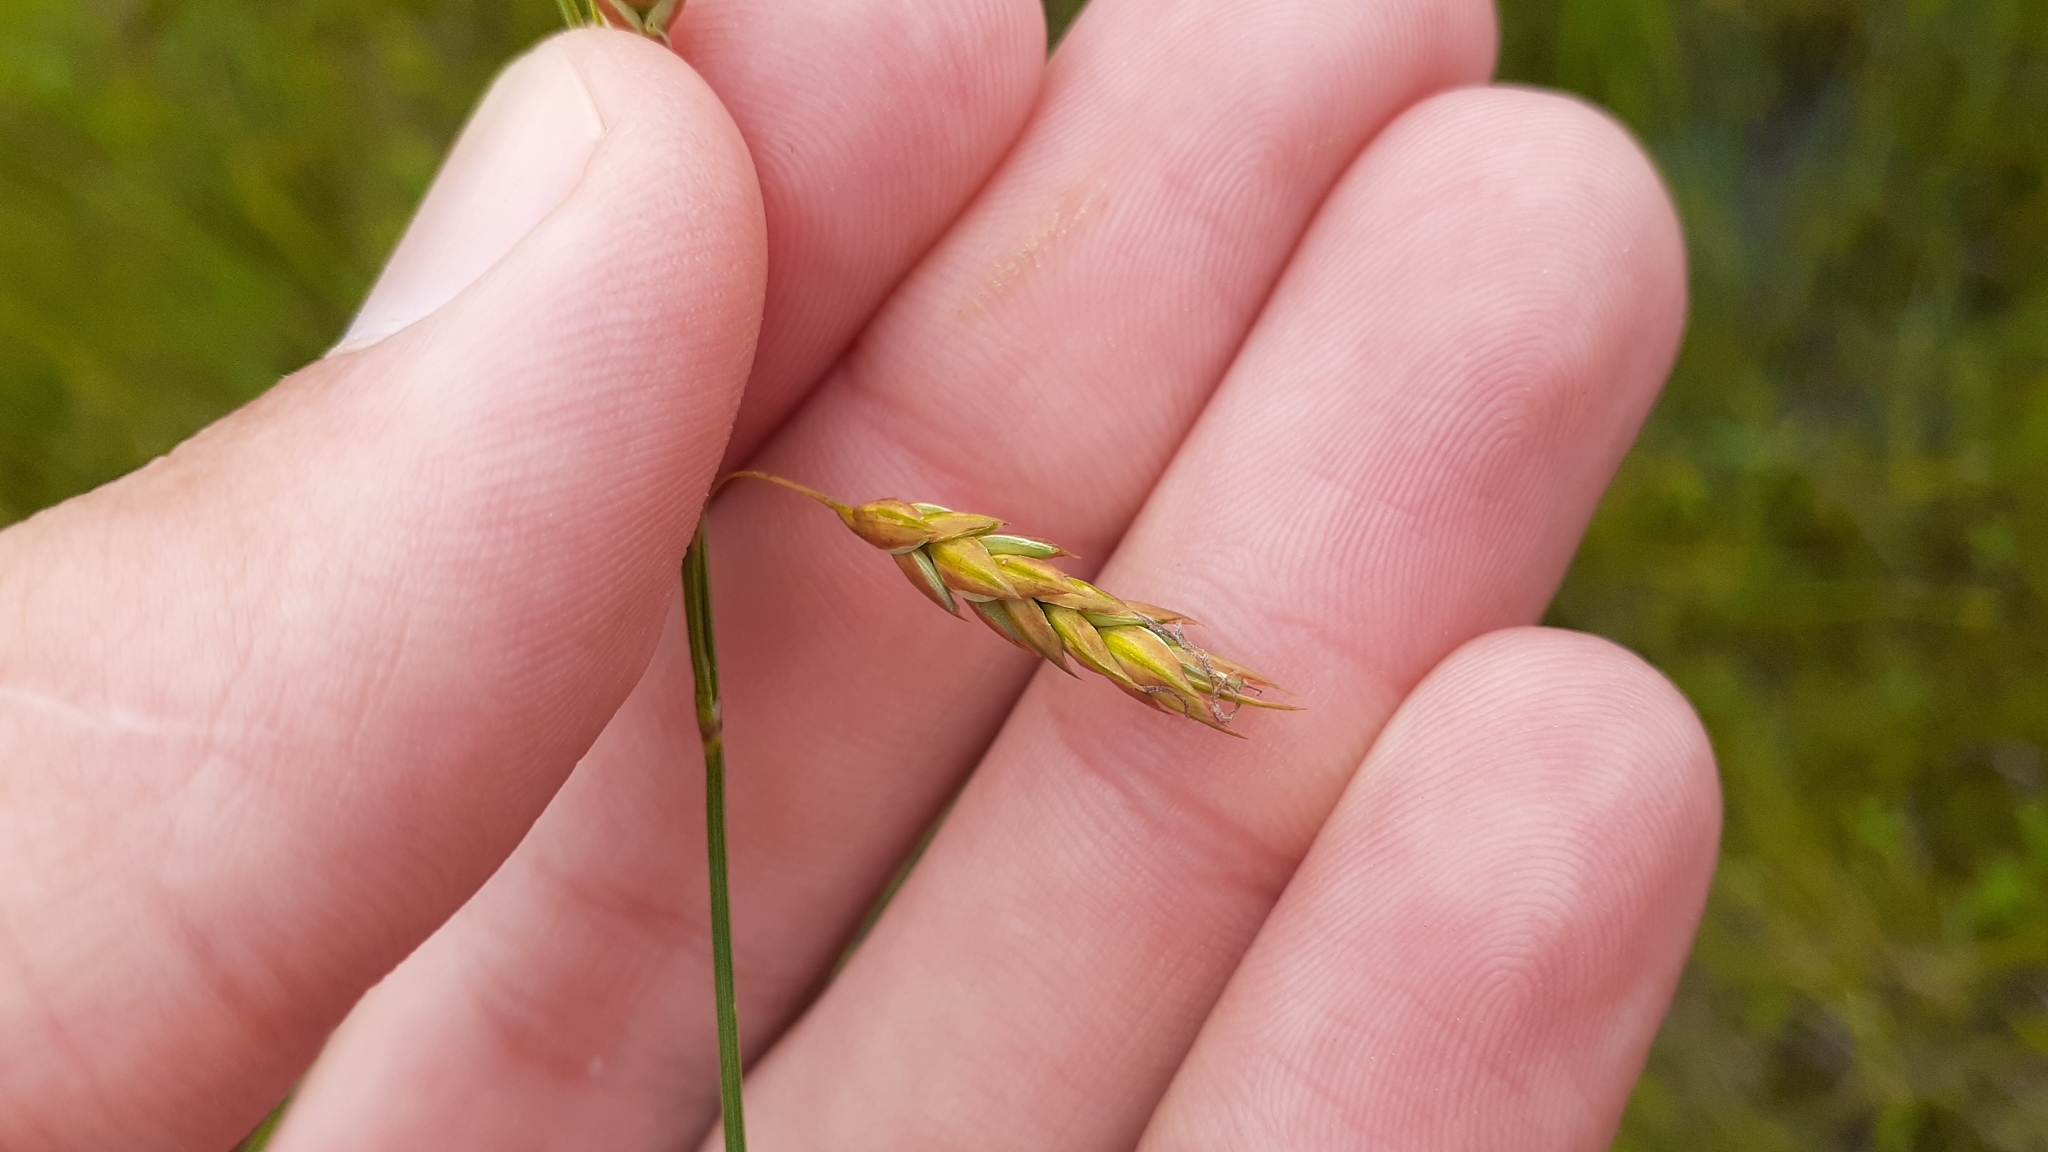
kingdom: Plantae
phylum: Tracheophyta
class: Liliopsida
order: Poales
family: Cyperaceae
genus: Carex
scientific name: Carex limosa
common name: Bog sedge
